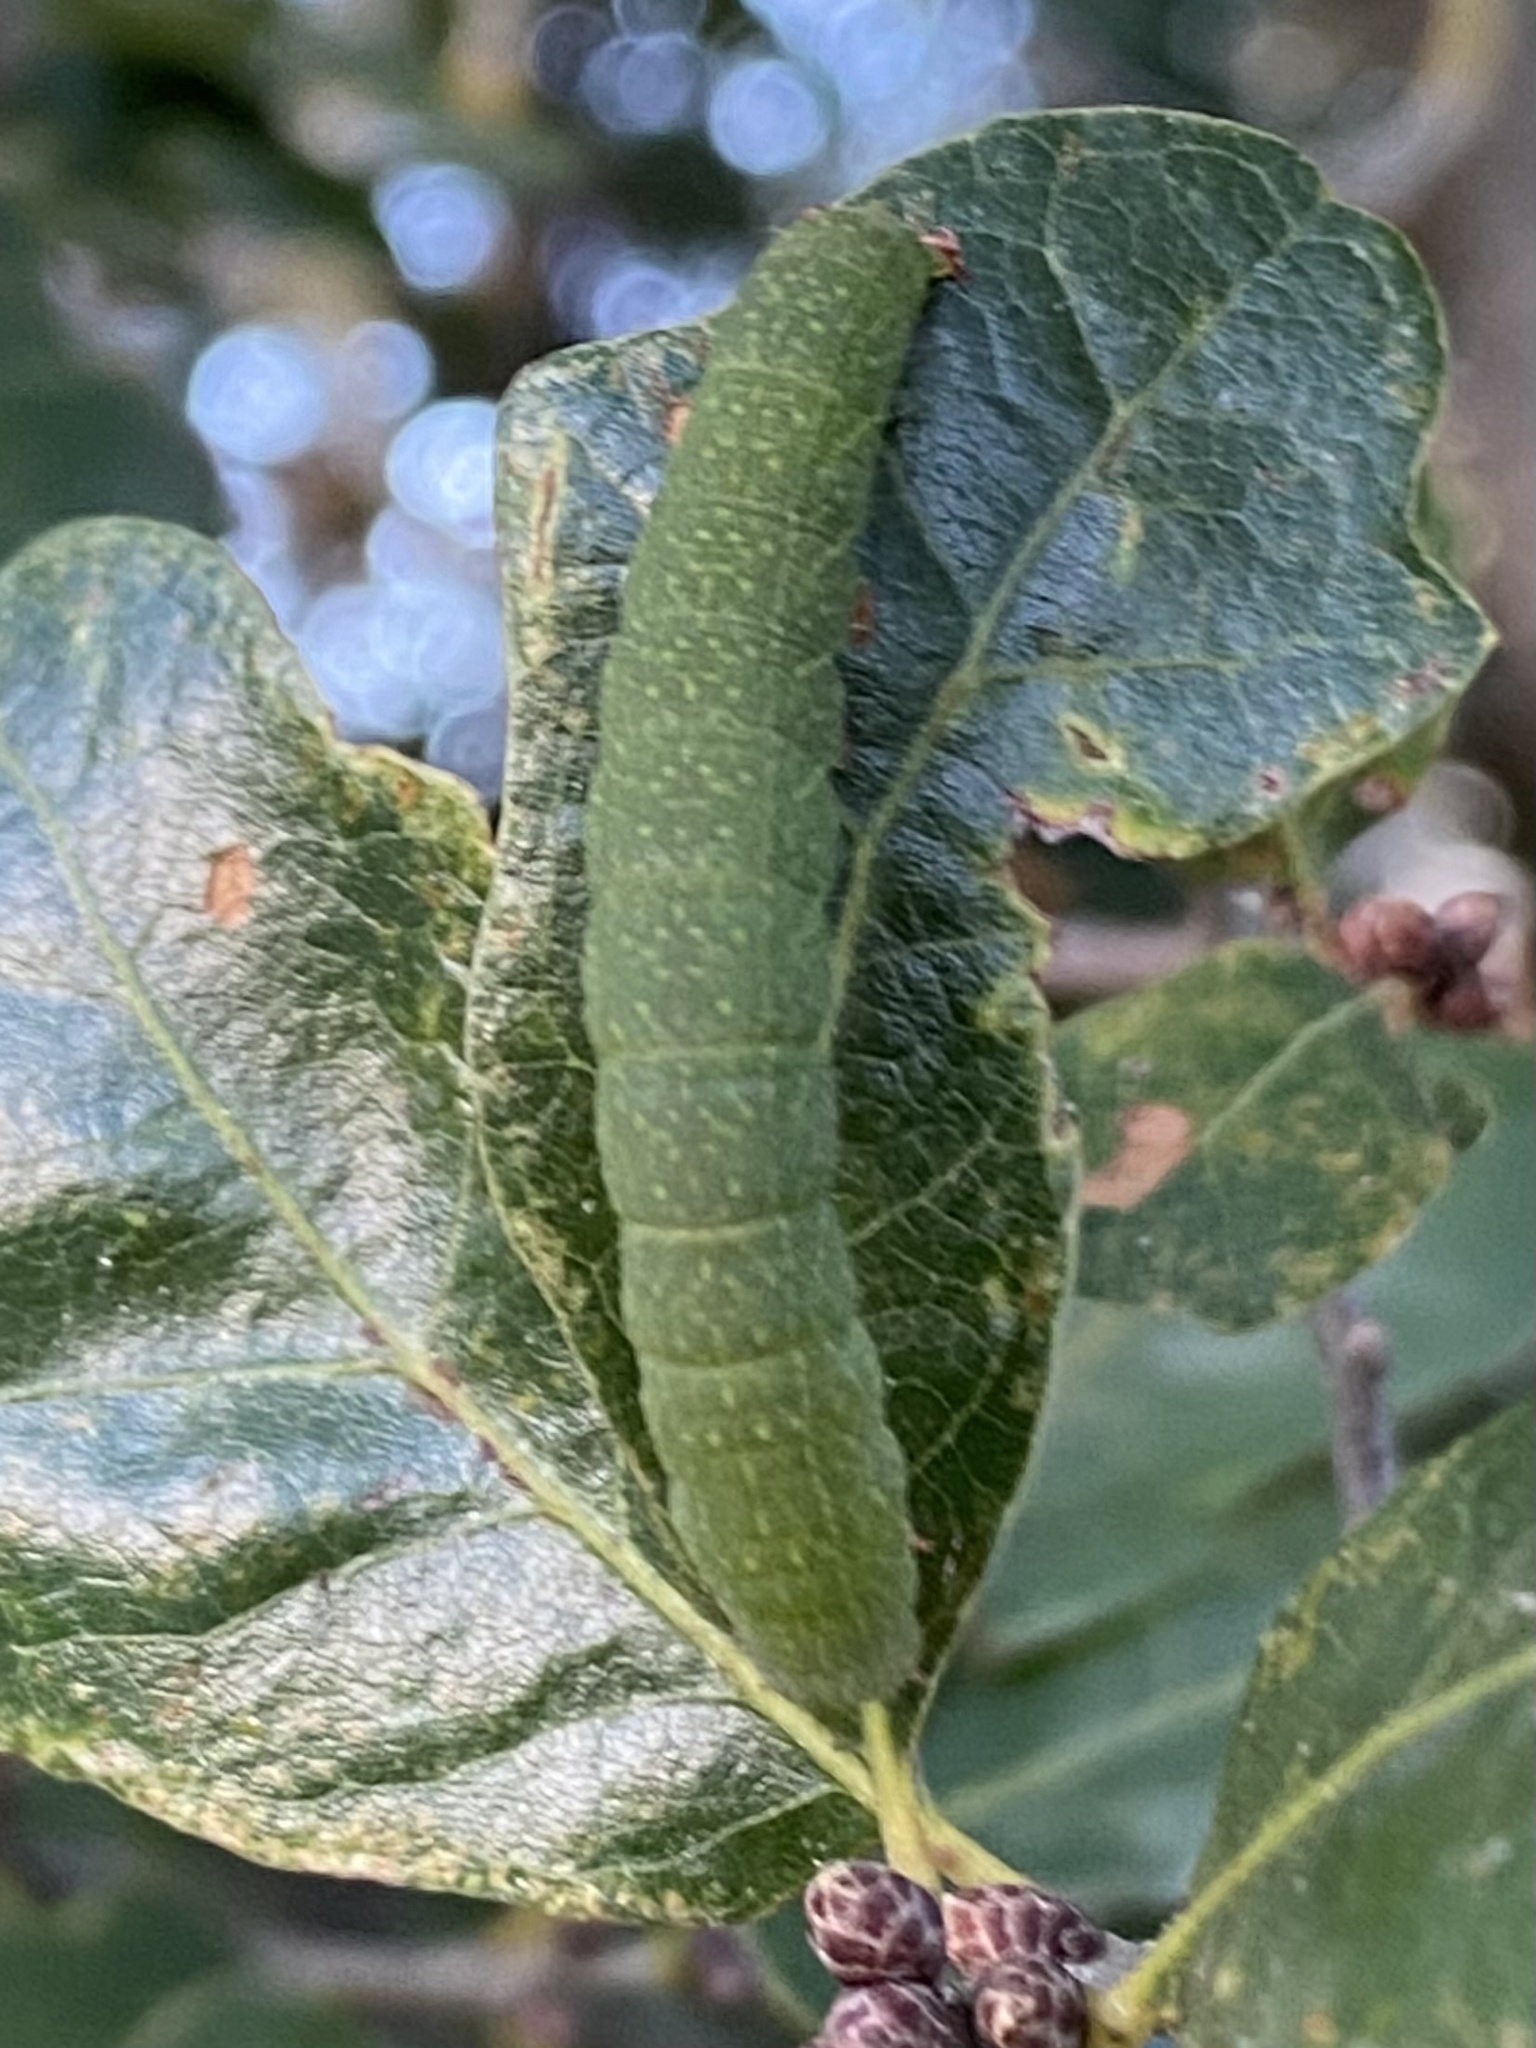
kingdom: Animalia
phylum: Arthropoda
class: Insecta
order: Lepidoptera
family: Erebidae
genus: Panopoda
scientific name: Panopoda
